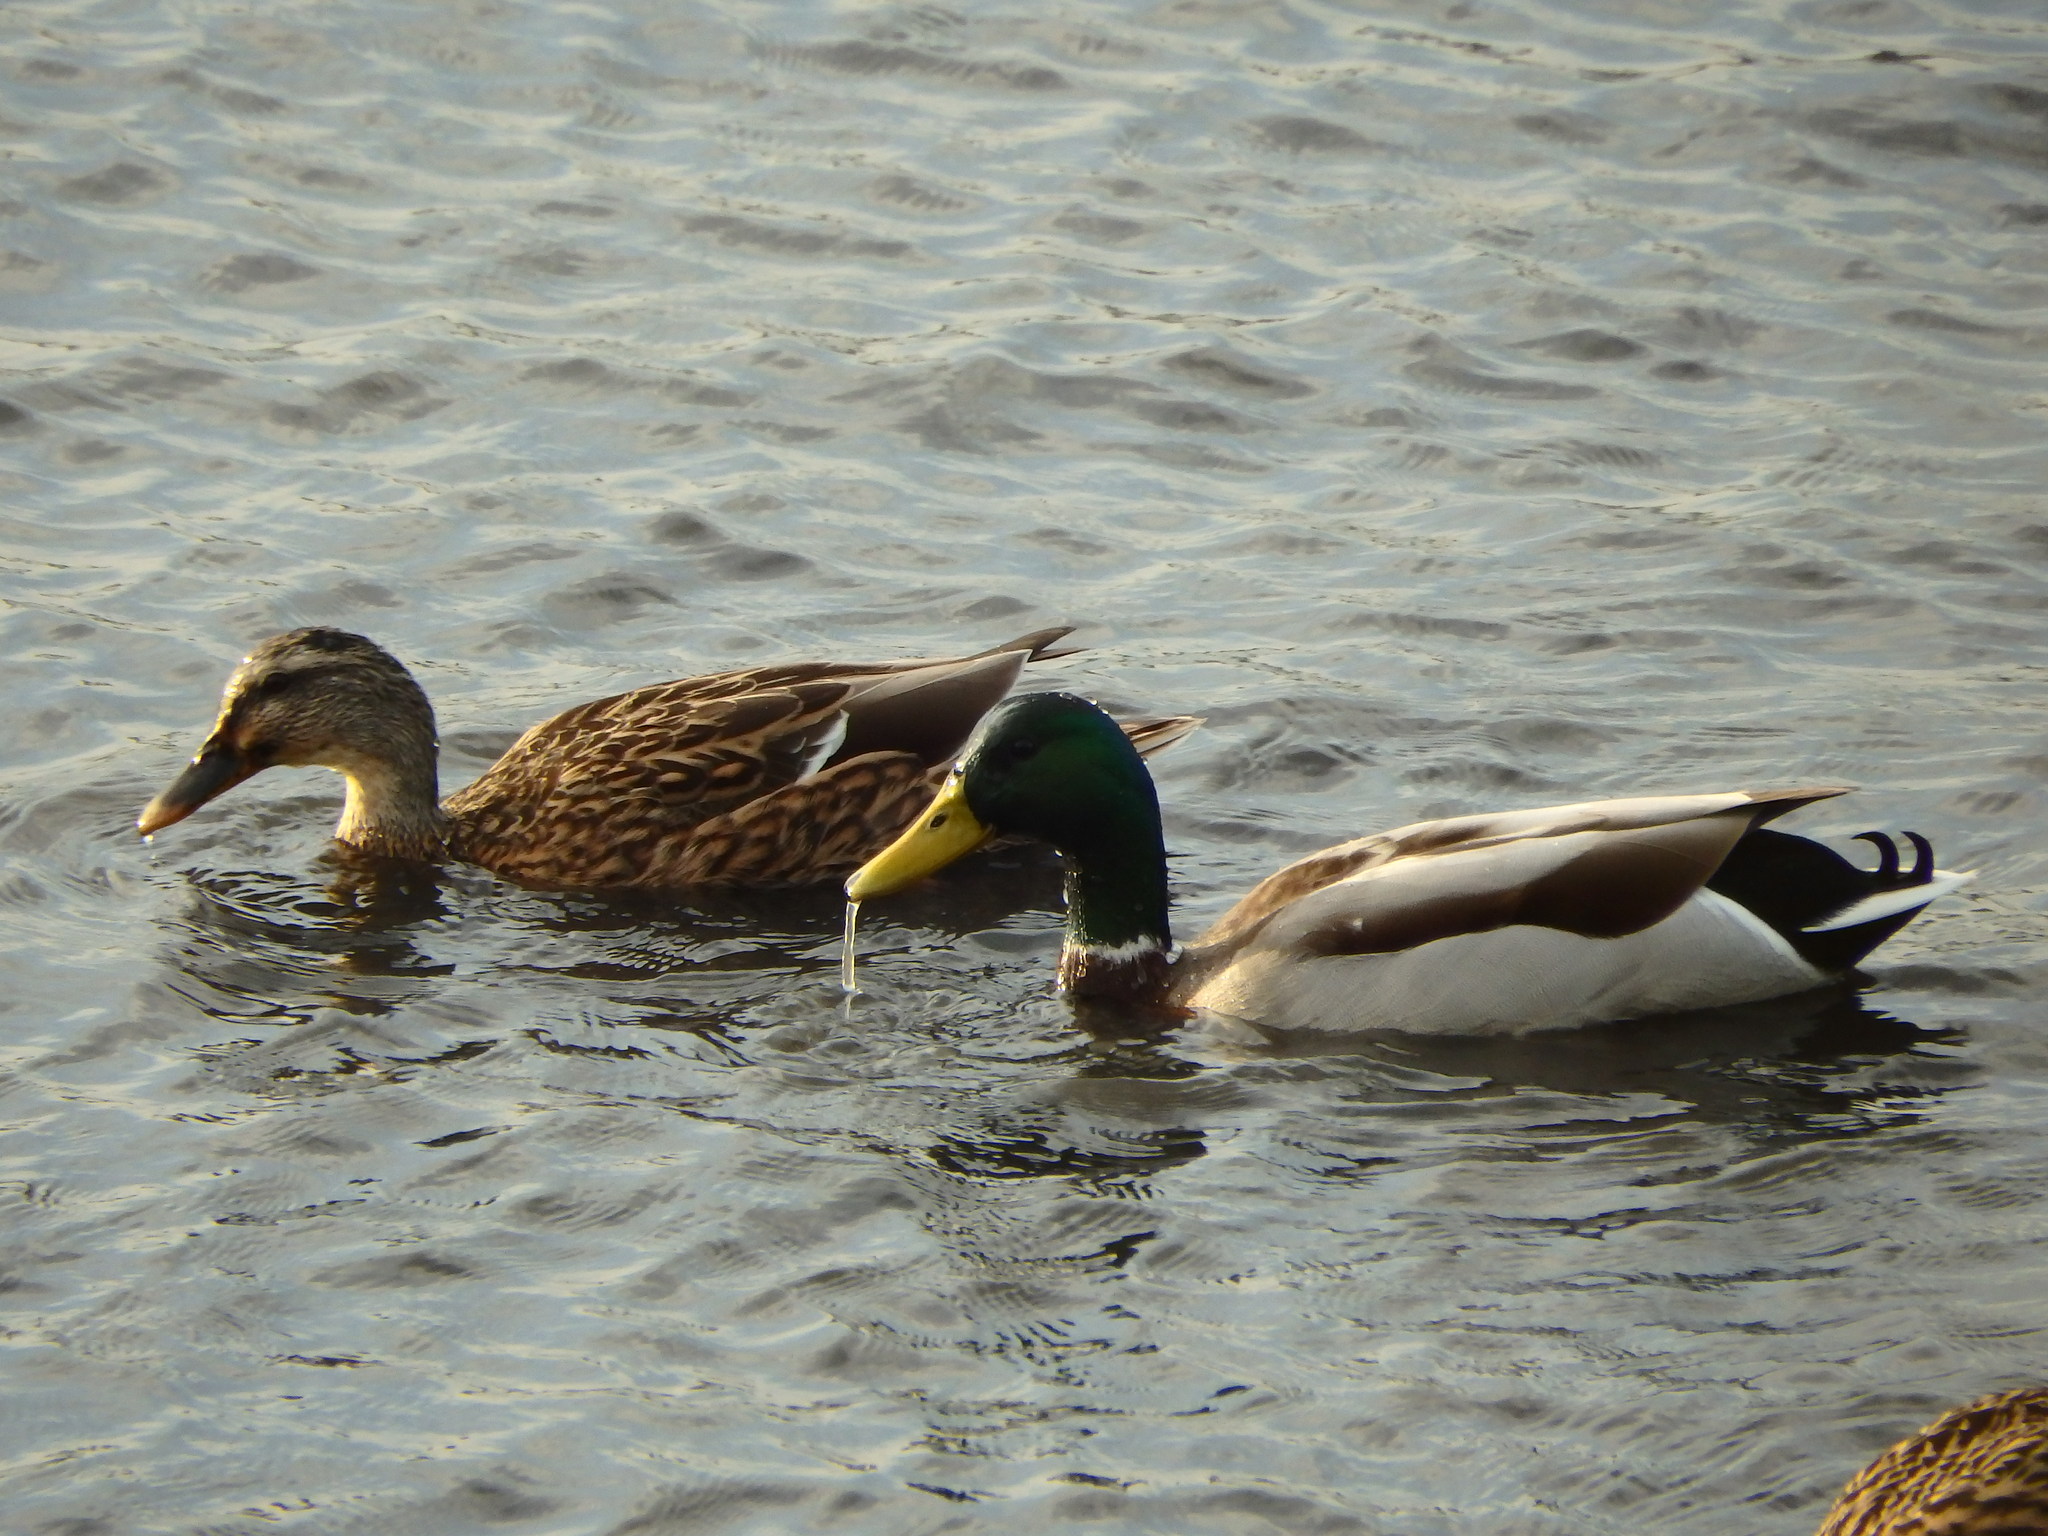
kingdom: Animalia
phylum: Chordata
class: Aves
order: Anseriformes
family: Anatidae
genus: Anas
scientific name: Anas platyrhynchos
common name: Mallard
